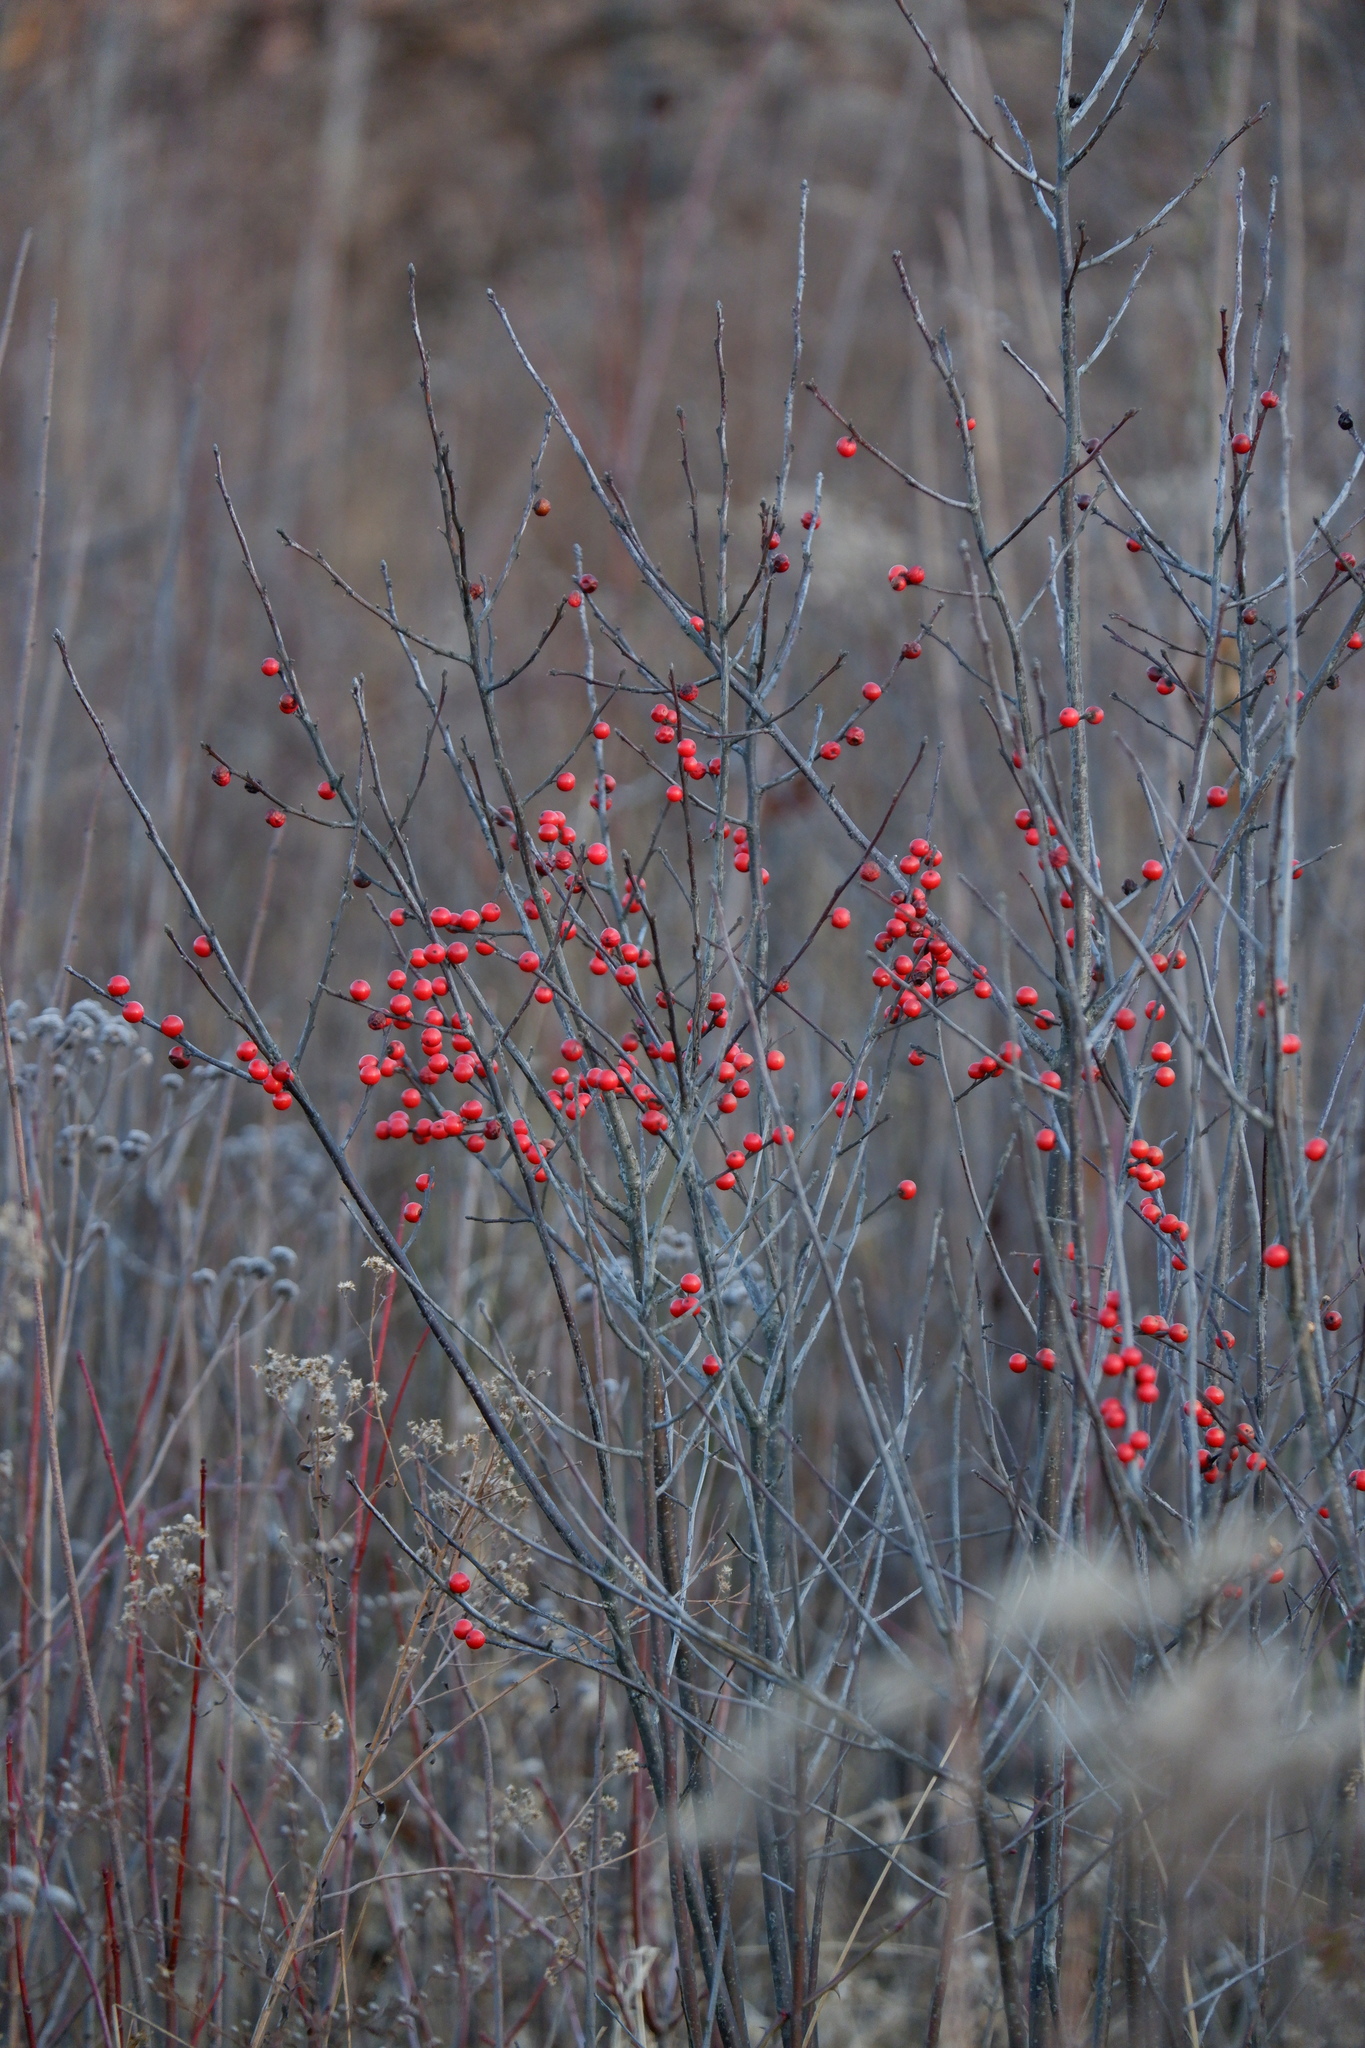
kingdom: Plantae
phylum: Tracheophyta
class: Magnoliopsida
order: Aquifoliales
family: Aquifoliaceae
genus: Ilex
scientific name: Ilex verticillata
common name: Virginia winterberry
